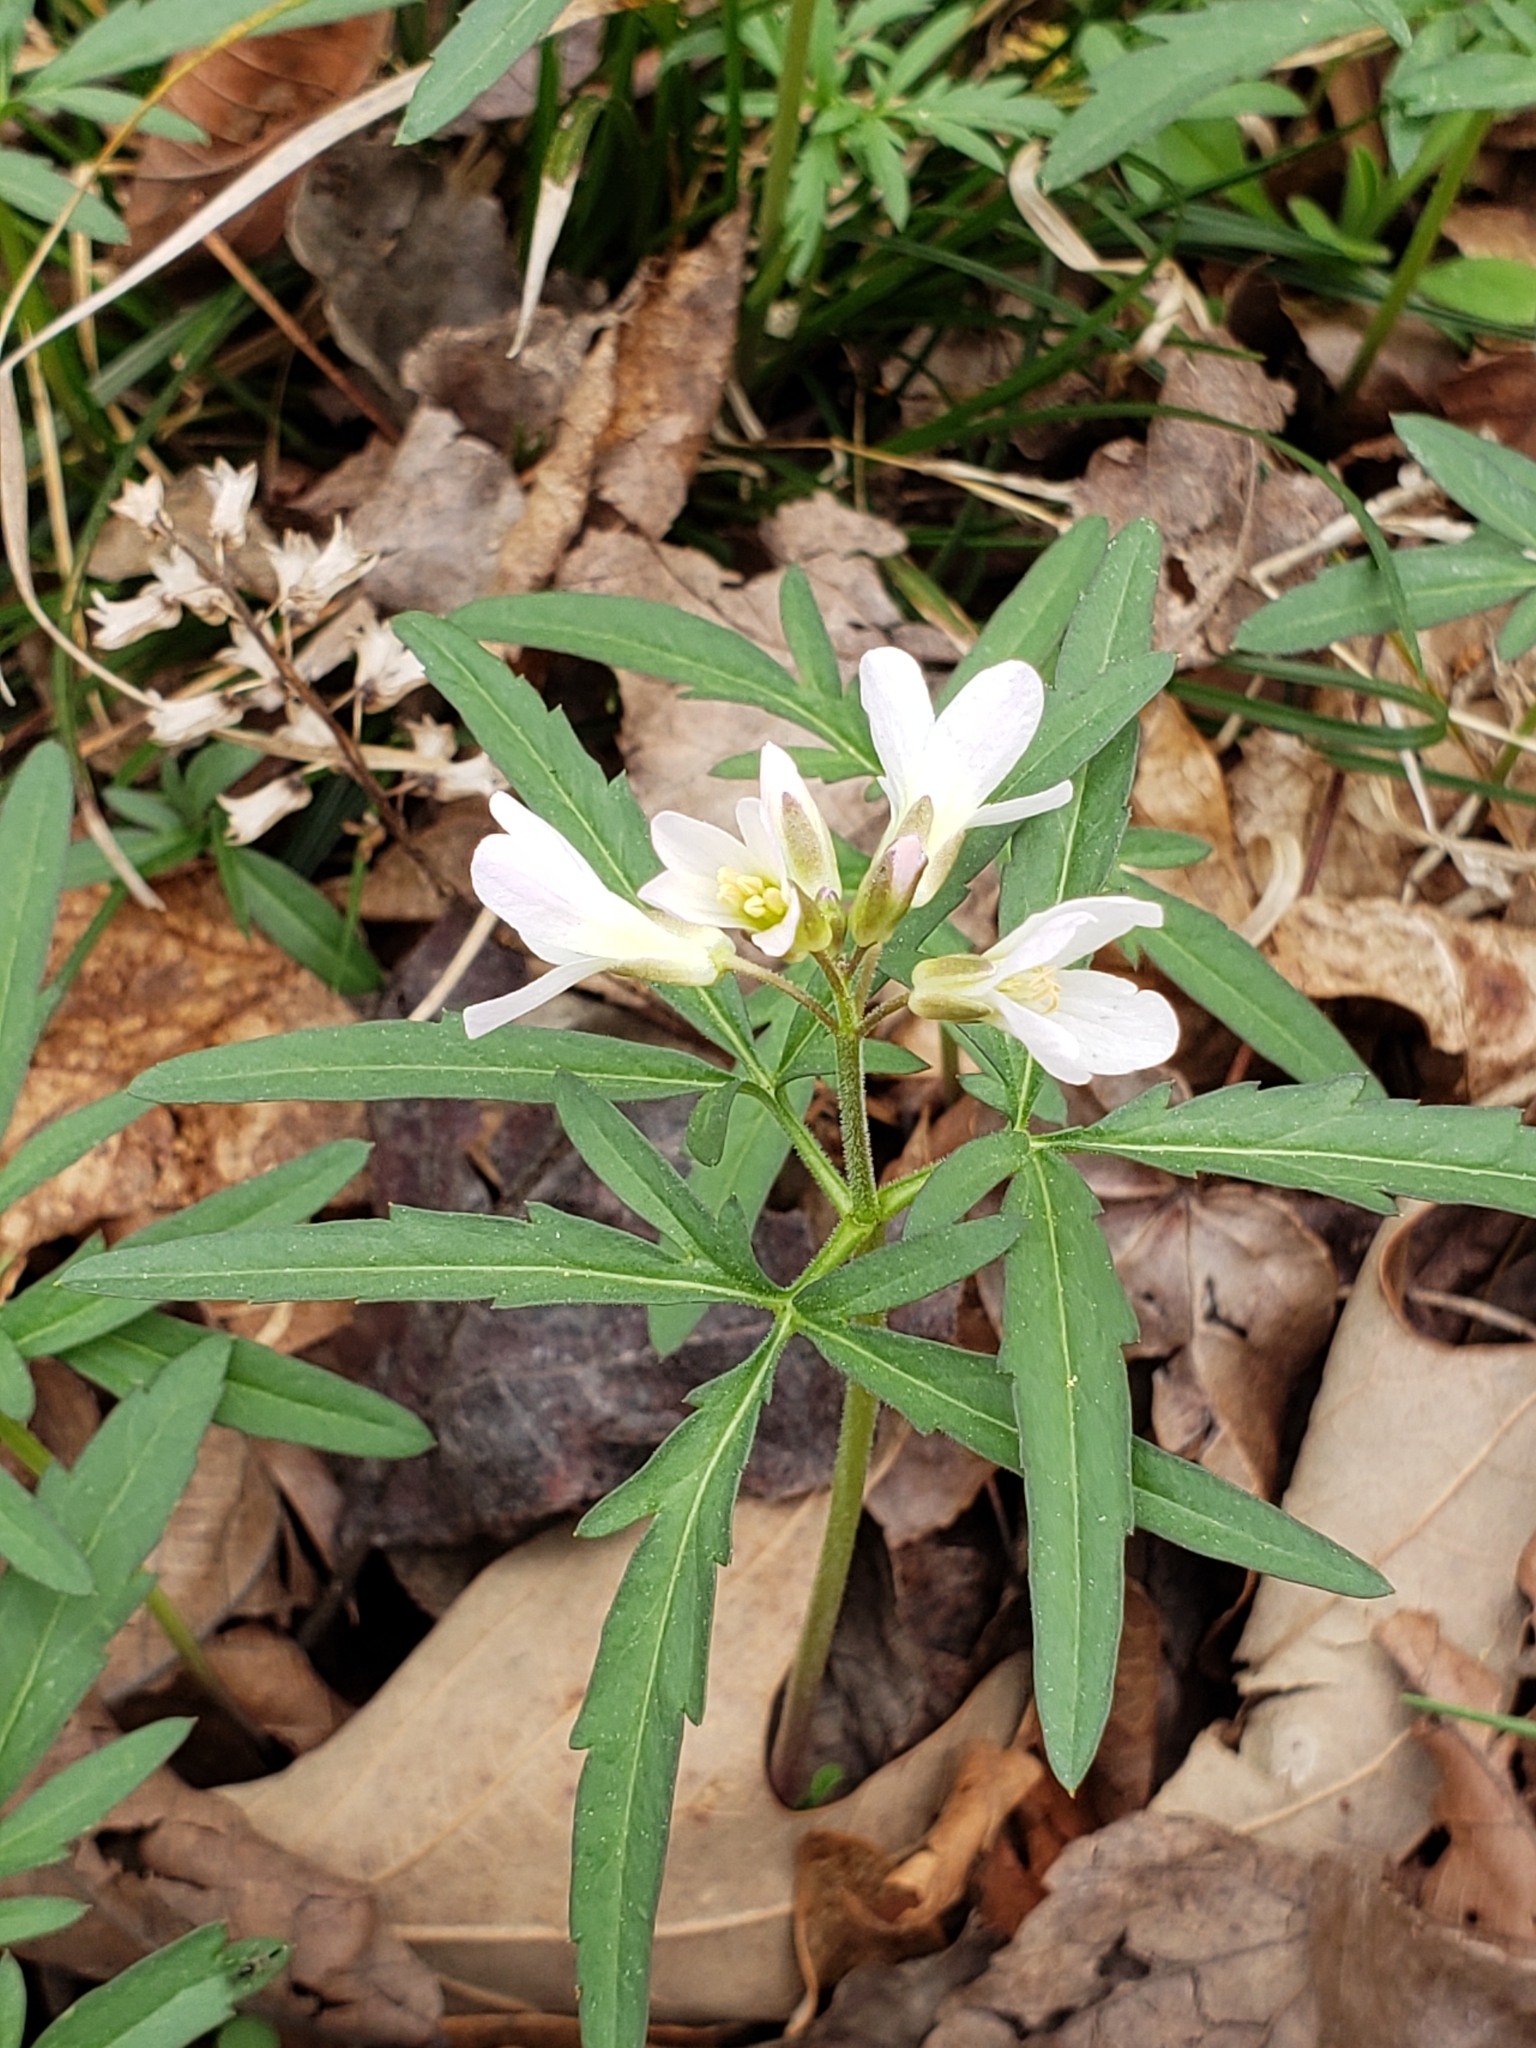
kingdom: Plantae
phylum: Tracheophyta
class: Magnoliopsida
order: Brassicales
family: Brassicaceae
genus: Cardamine
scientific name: Cardamine concatenata
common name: Cut-leaf toothcup
